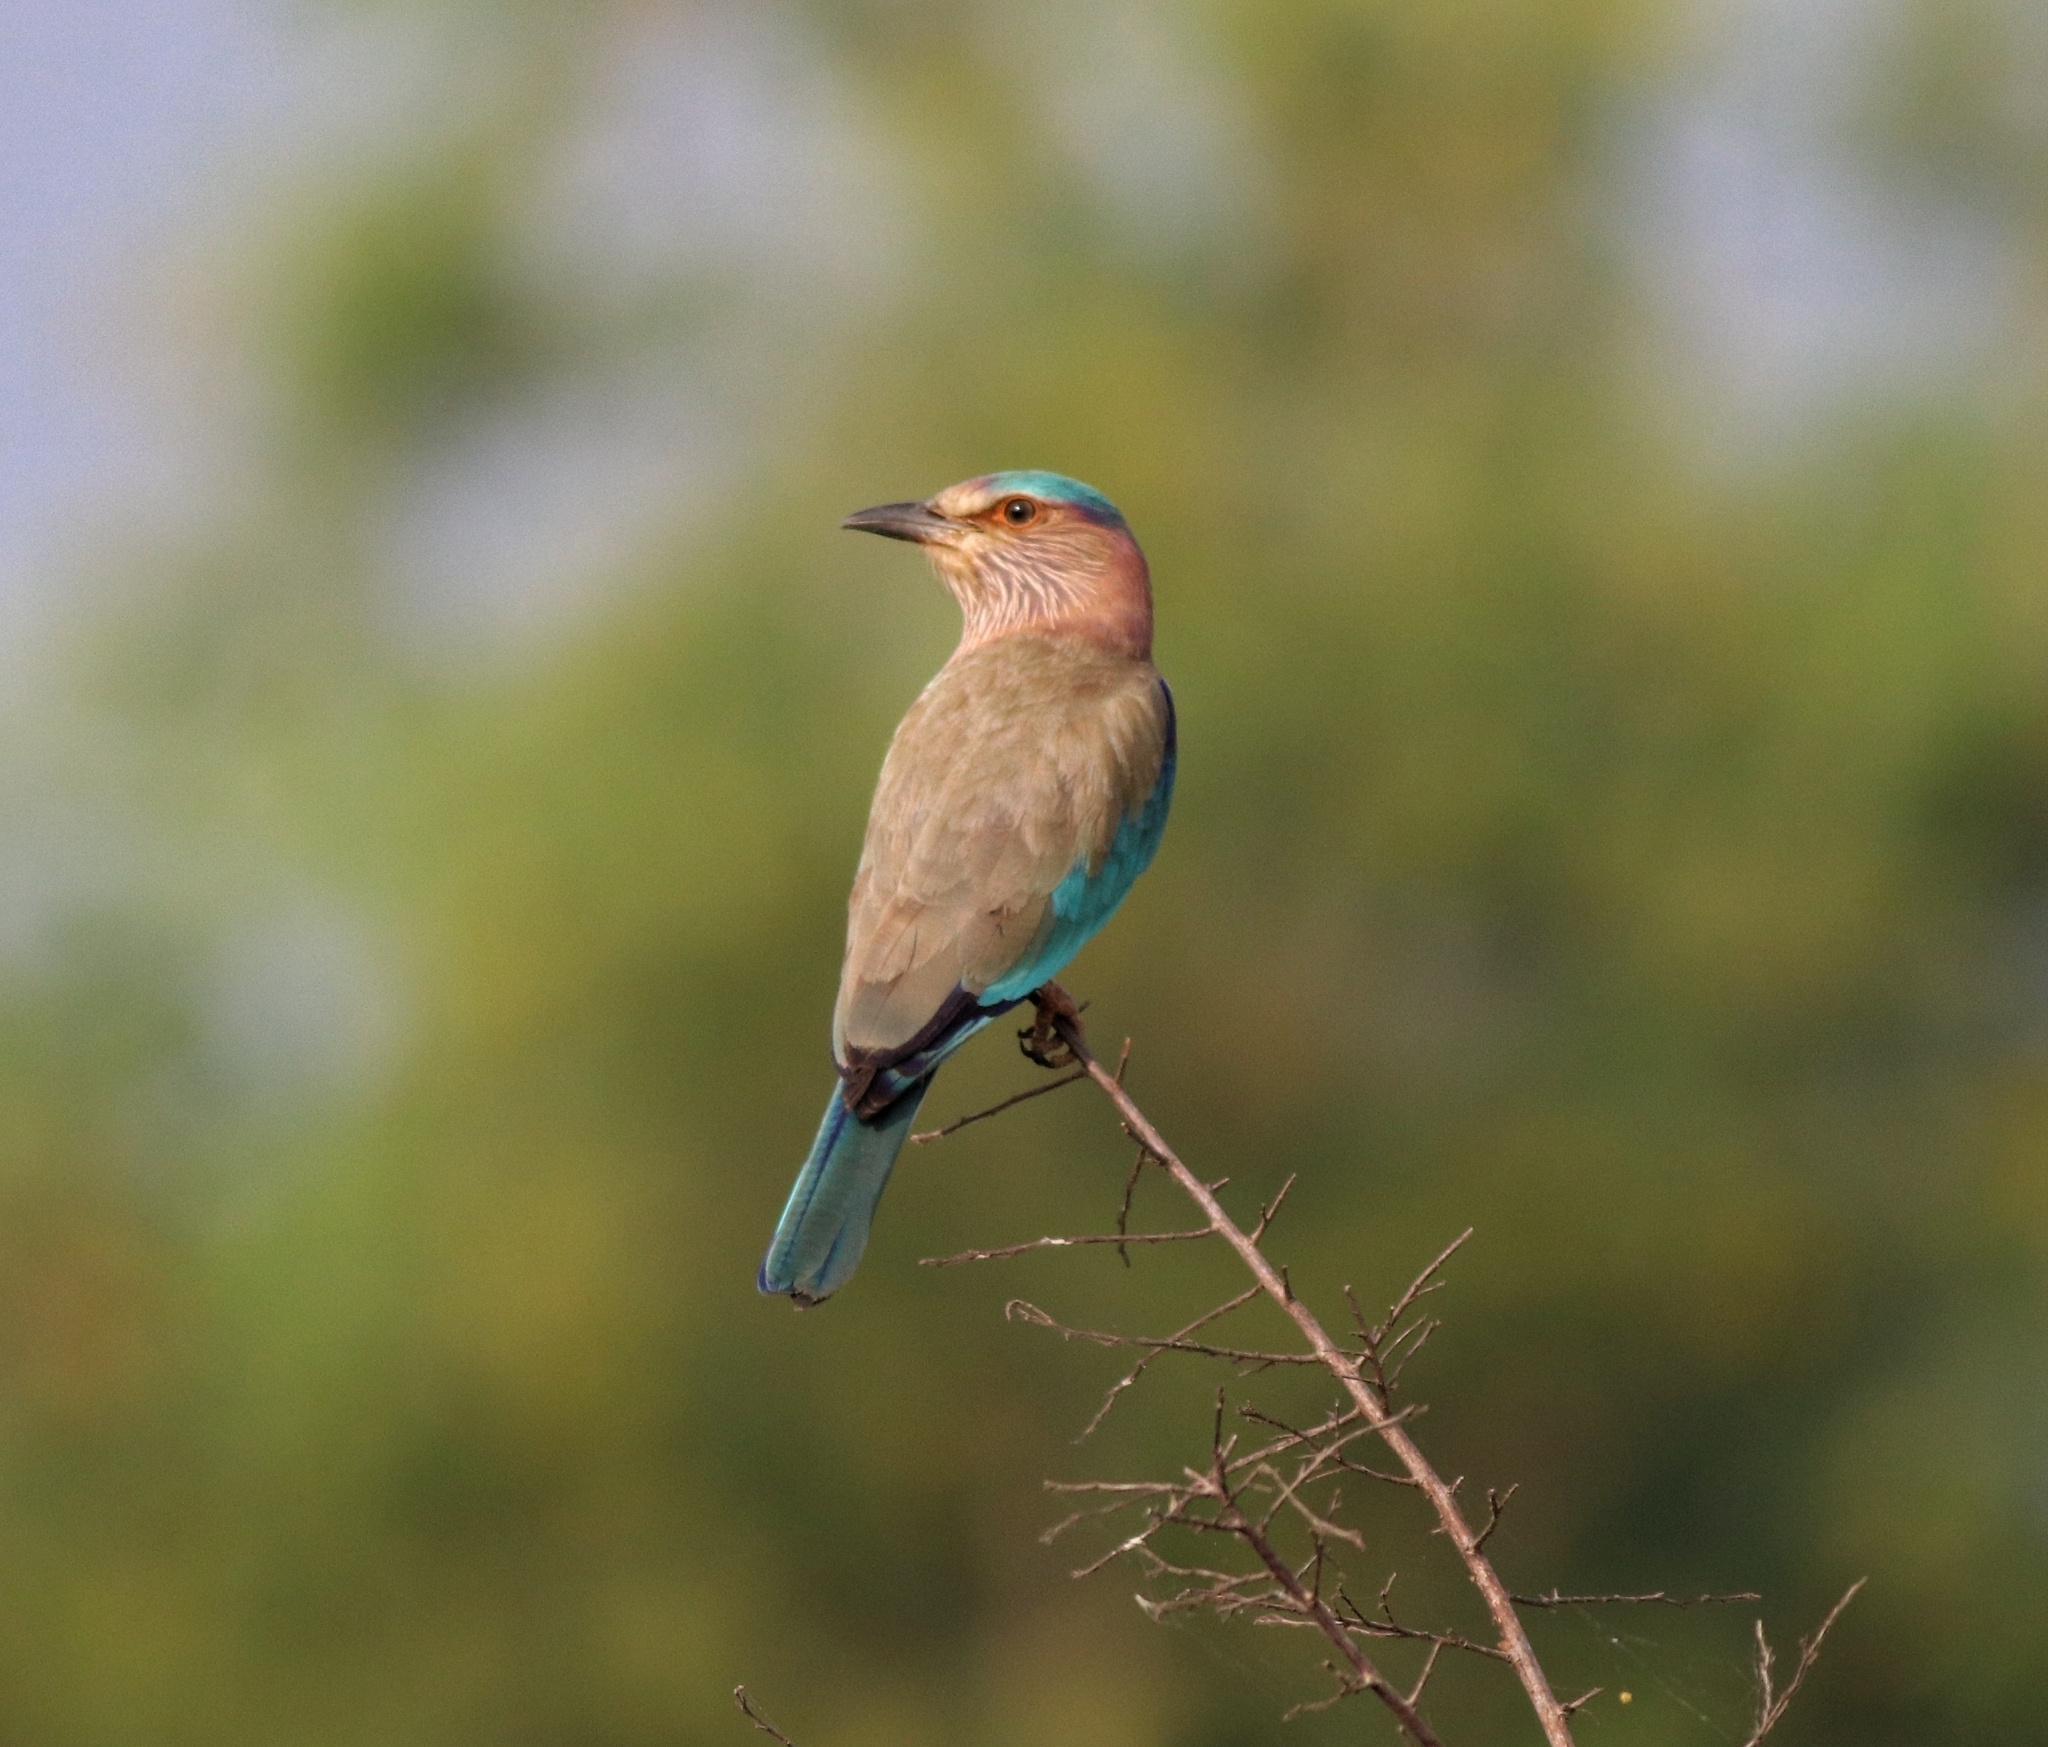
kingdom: Animalia
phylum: Chordata
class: Aves
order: Coraciiformes
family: Coraciidae
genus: Coracias
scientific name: Coracias benghalensis
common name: Indian roller
